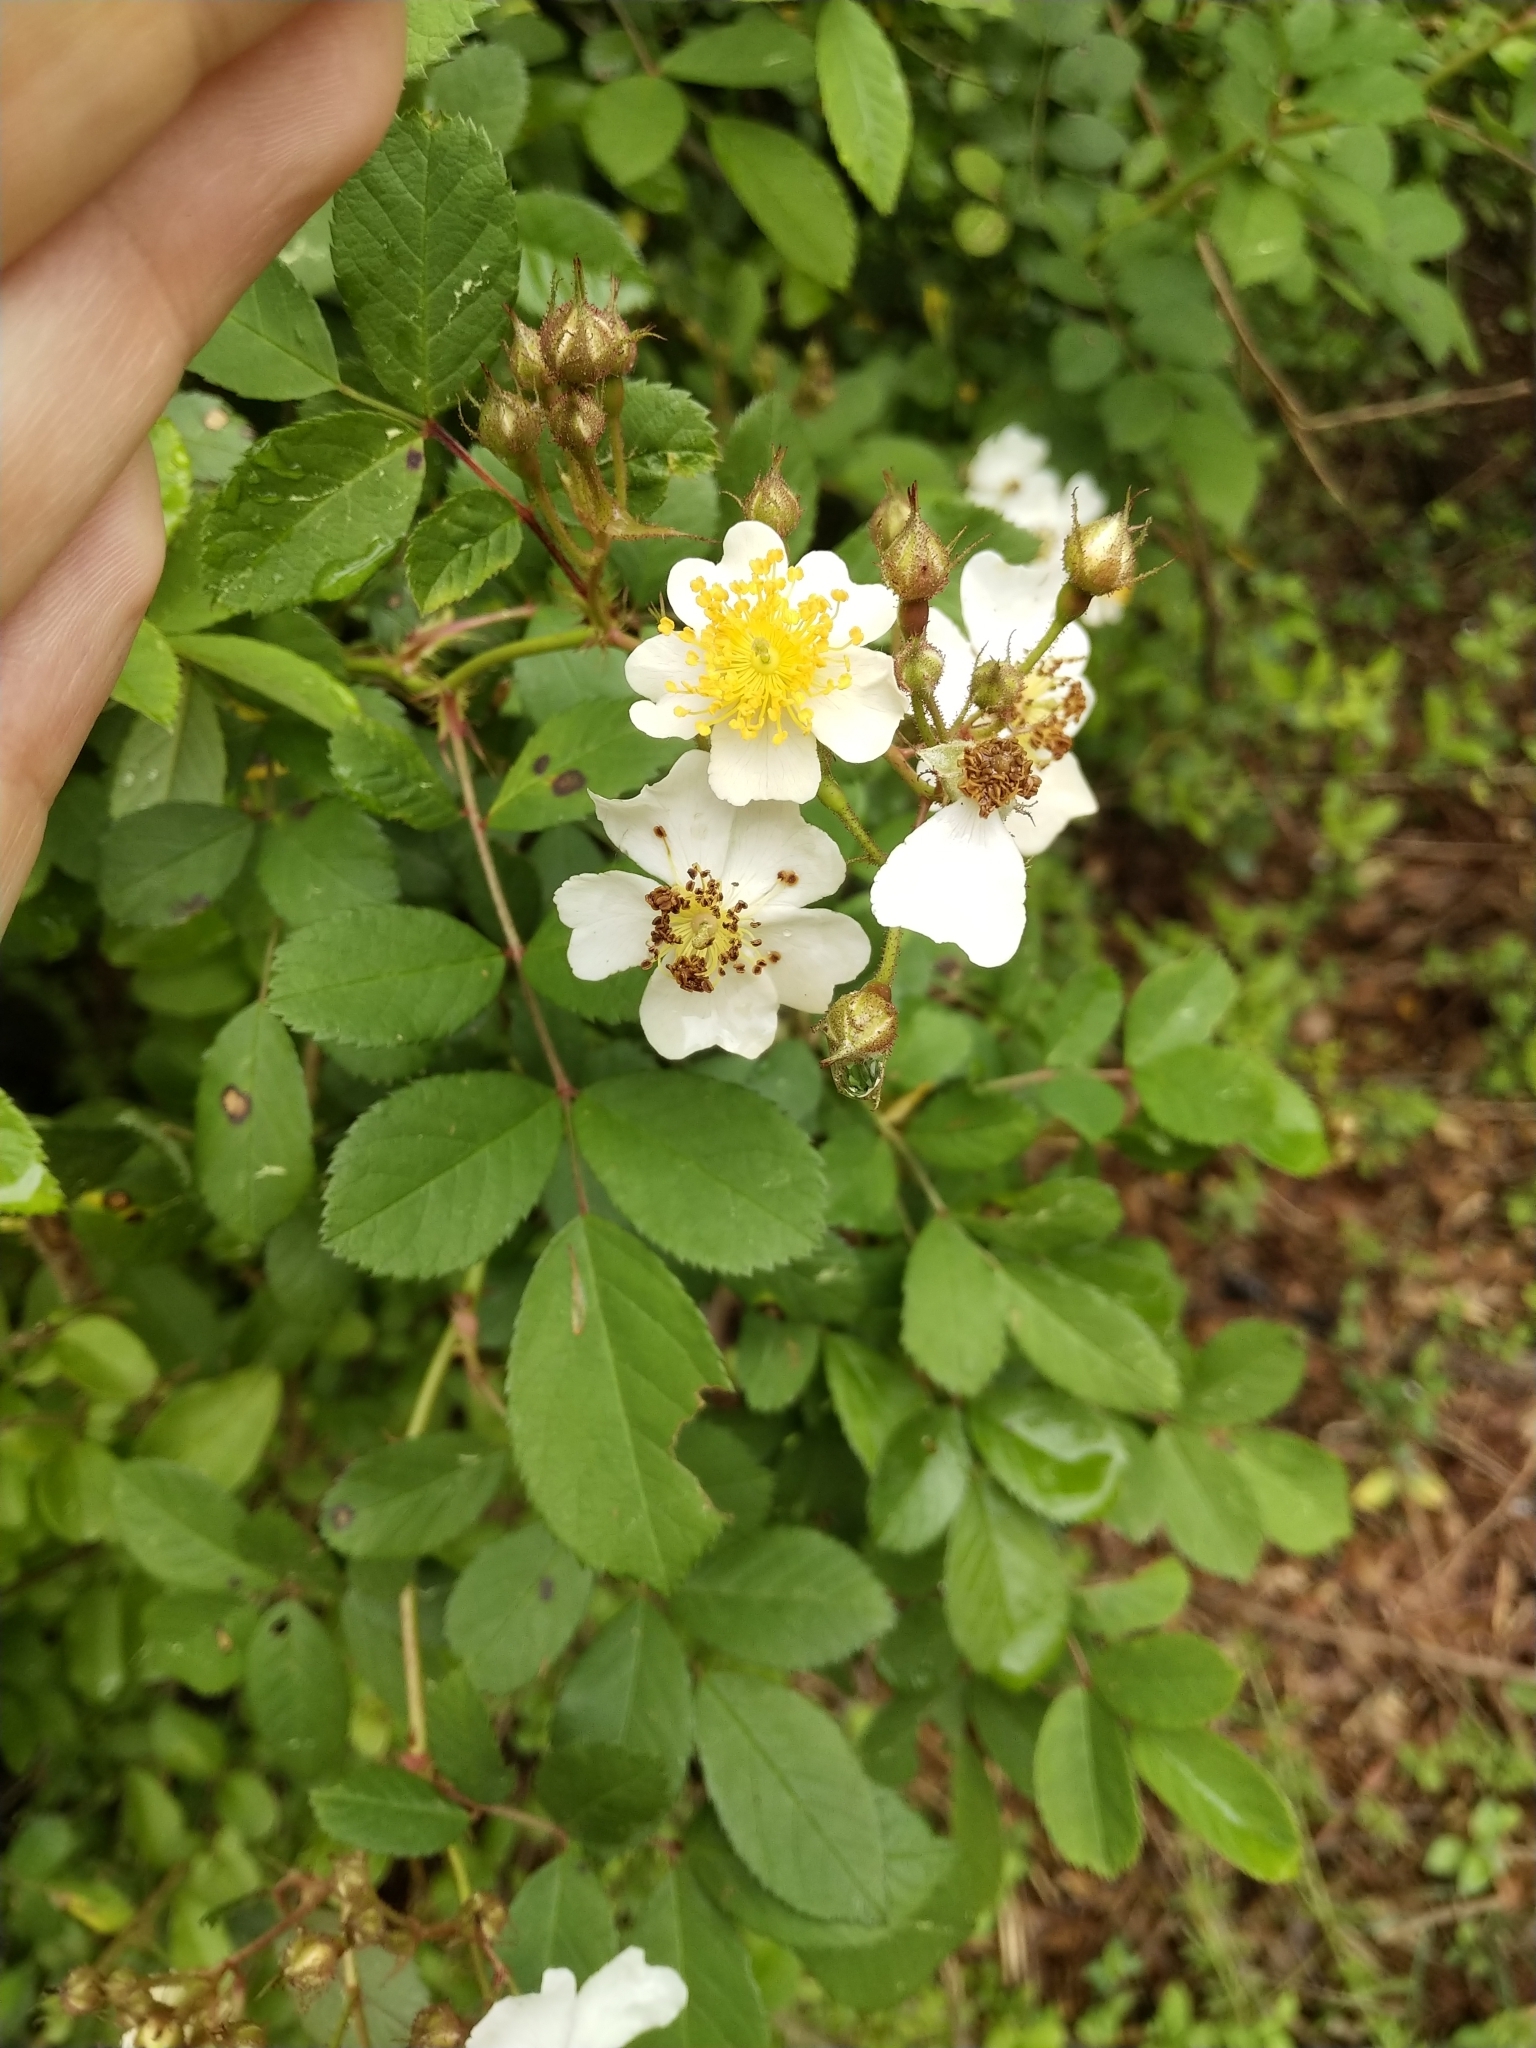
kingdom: Plantae
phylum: Tracheophyta
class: Magnoliopsida
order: Rosales
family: Rosaceae
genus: Rosa
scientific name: Rosa multiflora
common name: Multiflora rose
